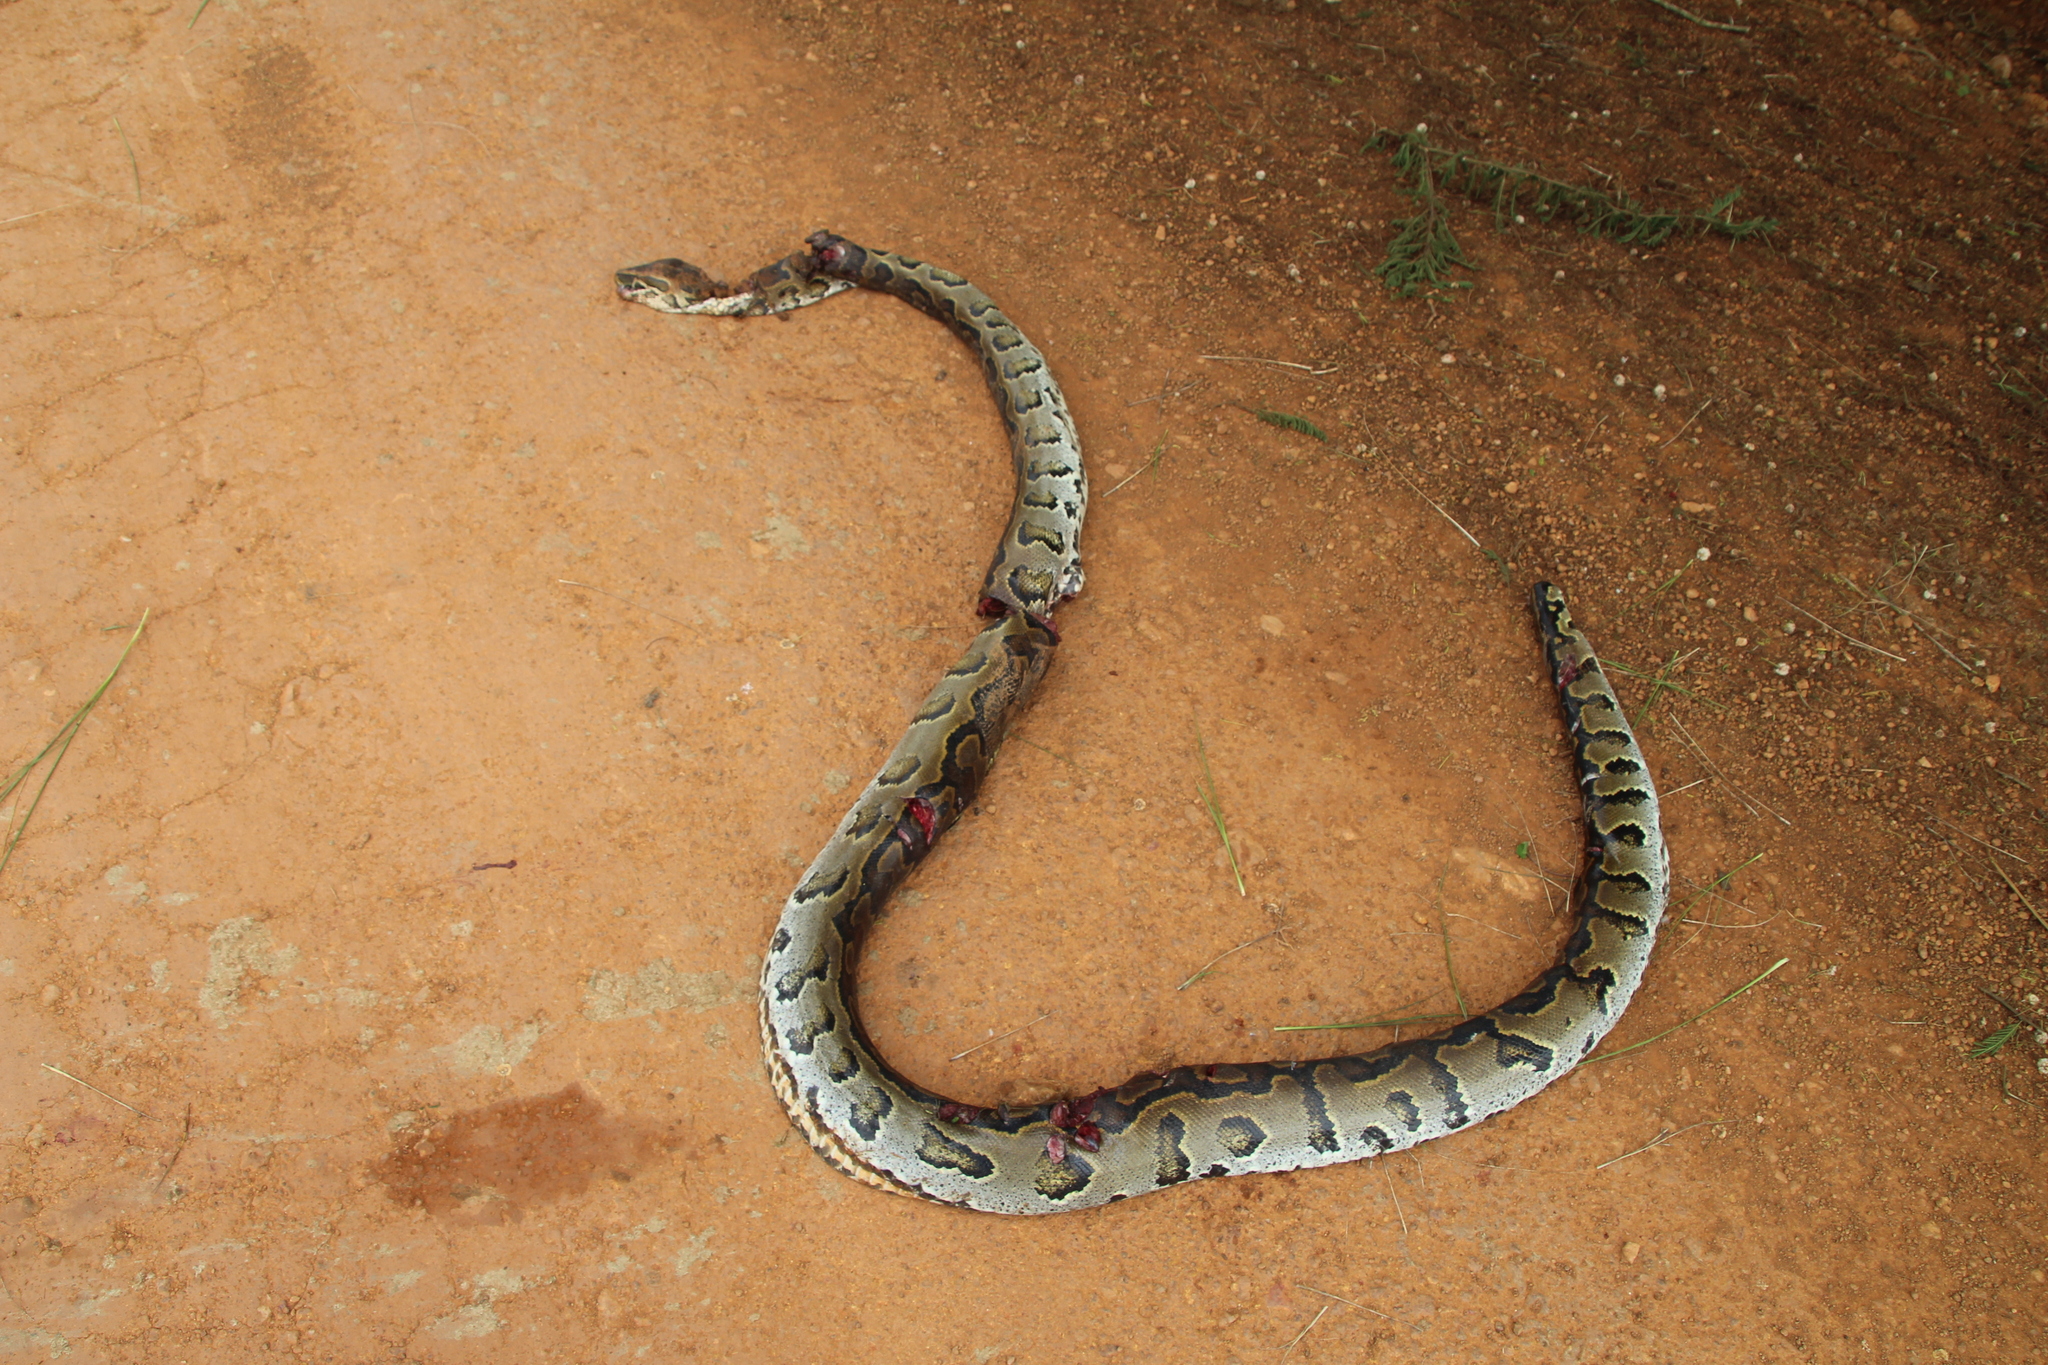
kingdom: Animalia
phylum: Chordata
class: Squamata
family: Pythonidae
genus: Python
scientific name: Python sebae
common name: African rock python
